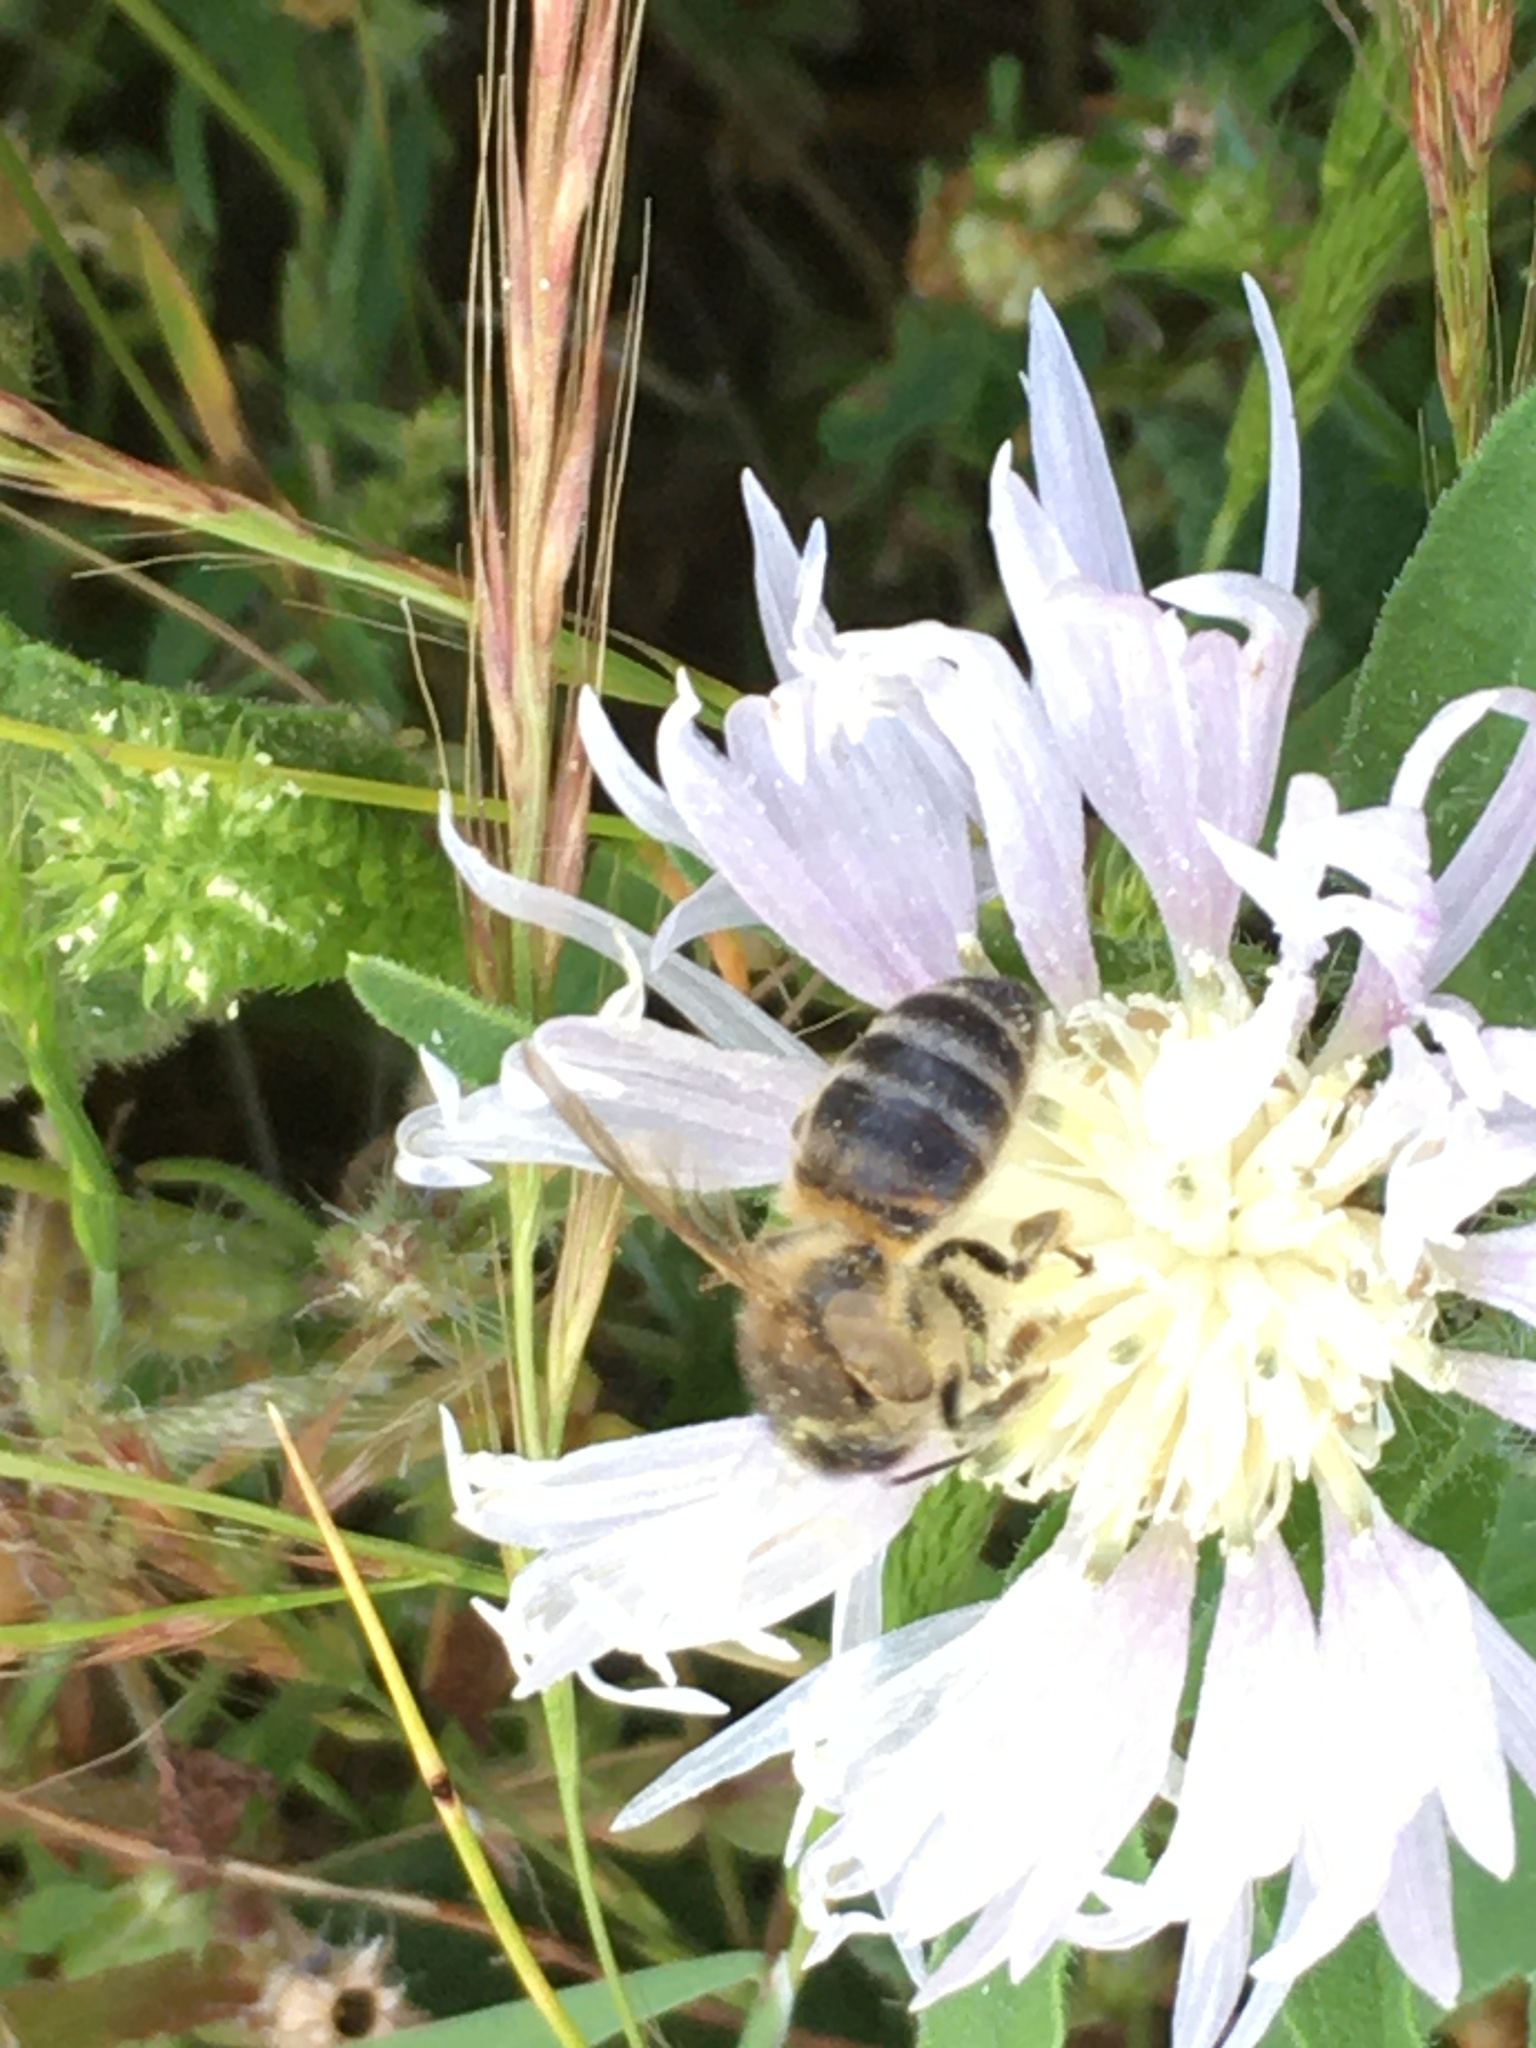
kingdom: Animalia
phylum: Arthropoda
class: Insecta
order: Hymenoptera
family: Apidae
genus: Apis
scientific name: Apis mellifera
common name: Honey bee
